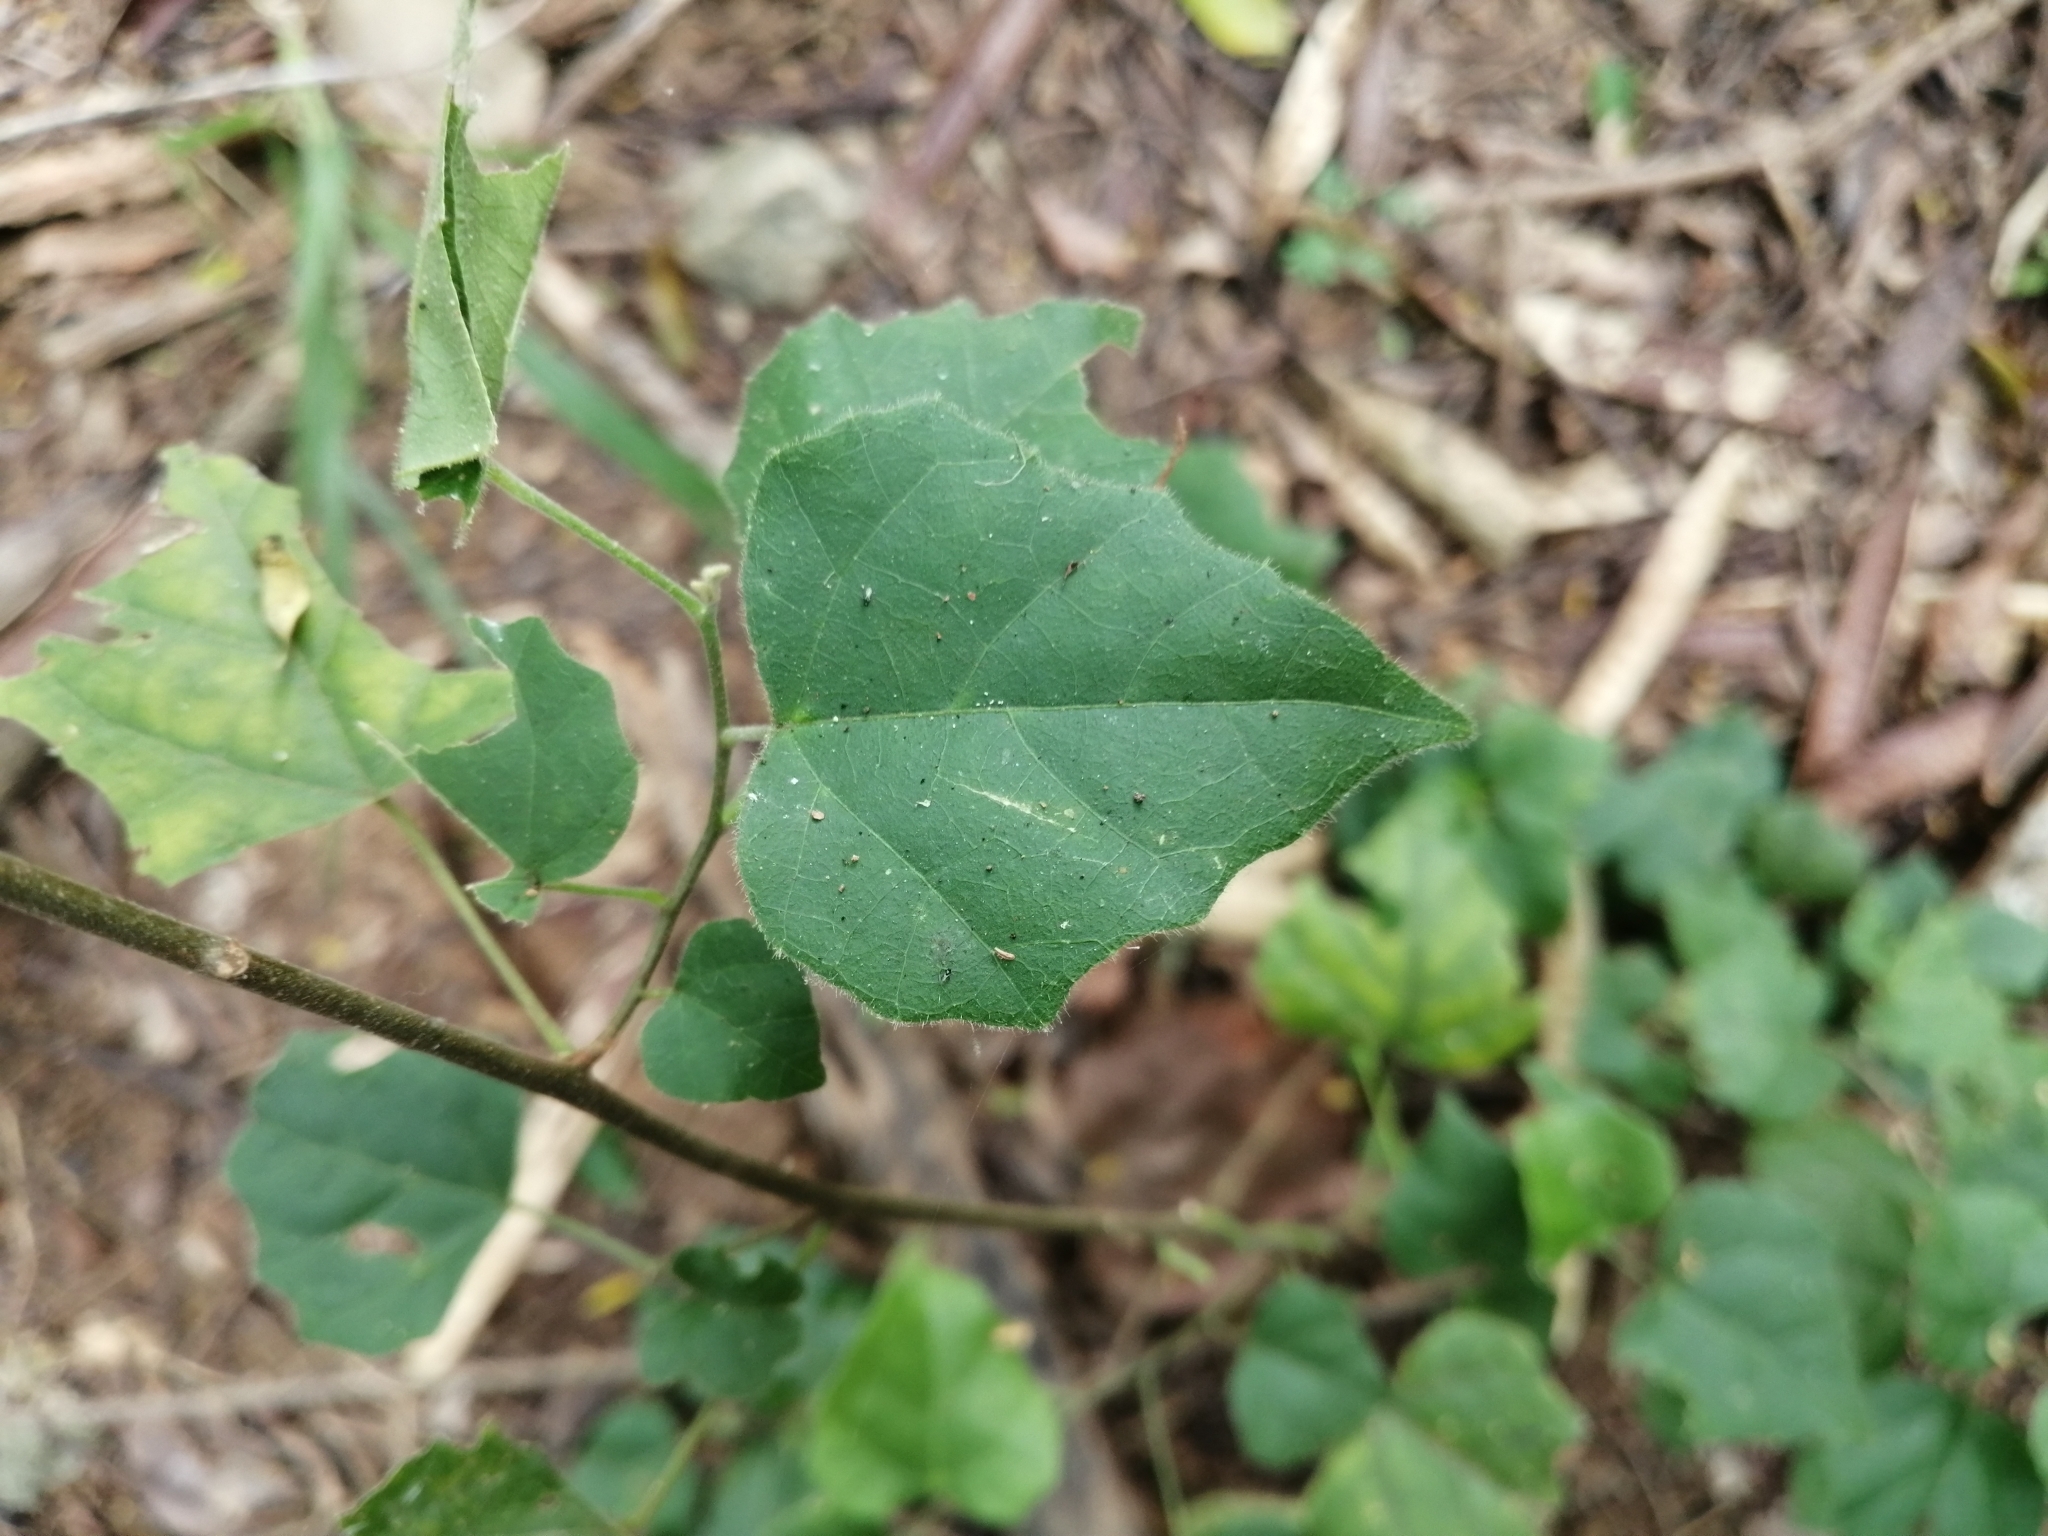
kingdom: Plantae
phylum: Tracheophyta
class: Magnoliopsida
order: Malpighiales
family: Euphorbiaceae
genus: Mallotus
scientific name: Mallotus repandus
